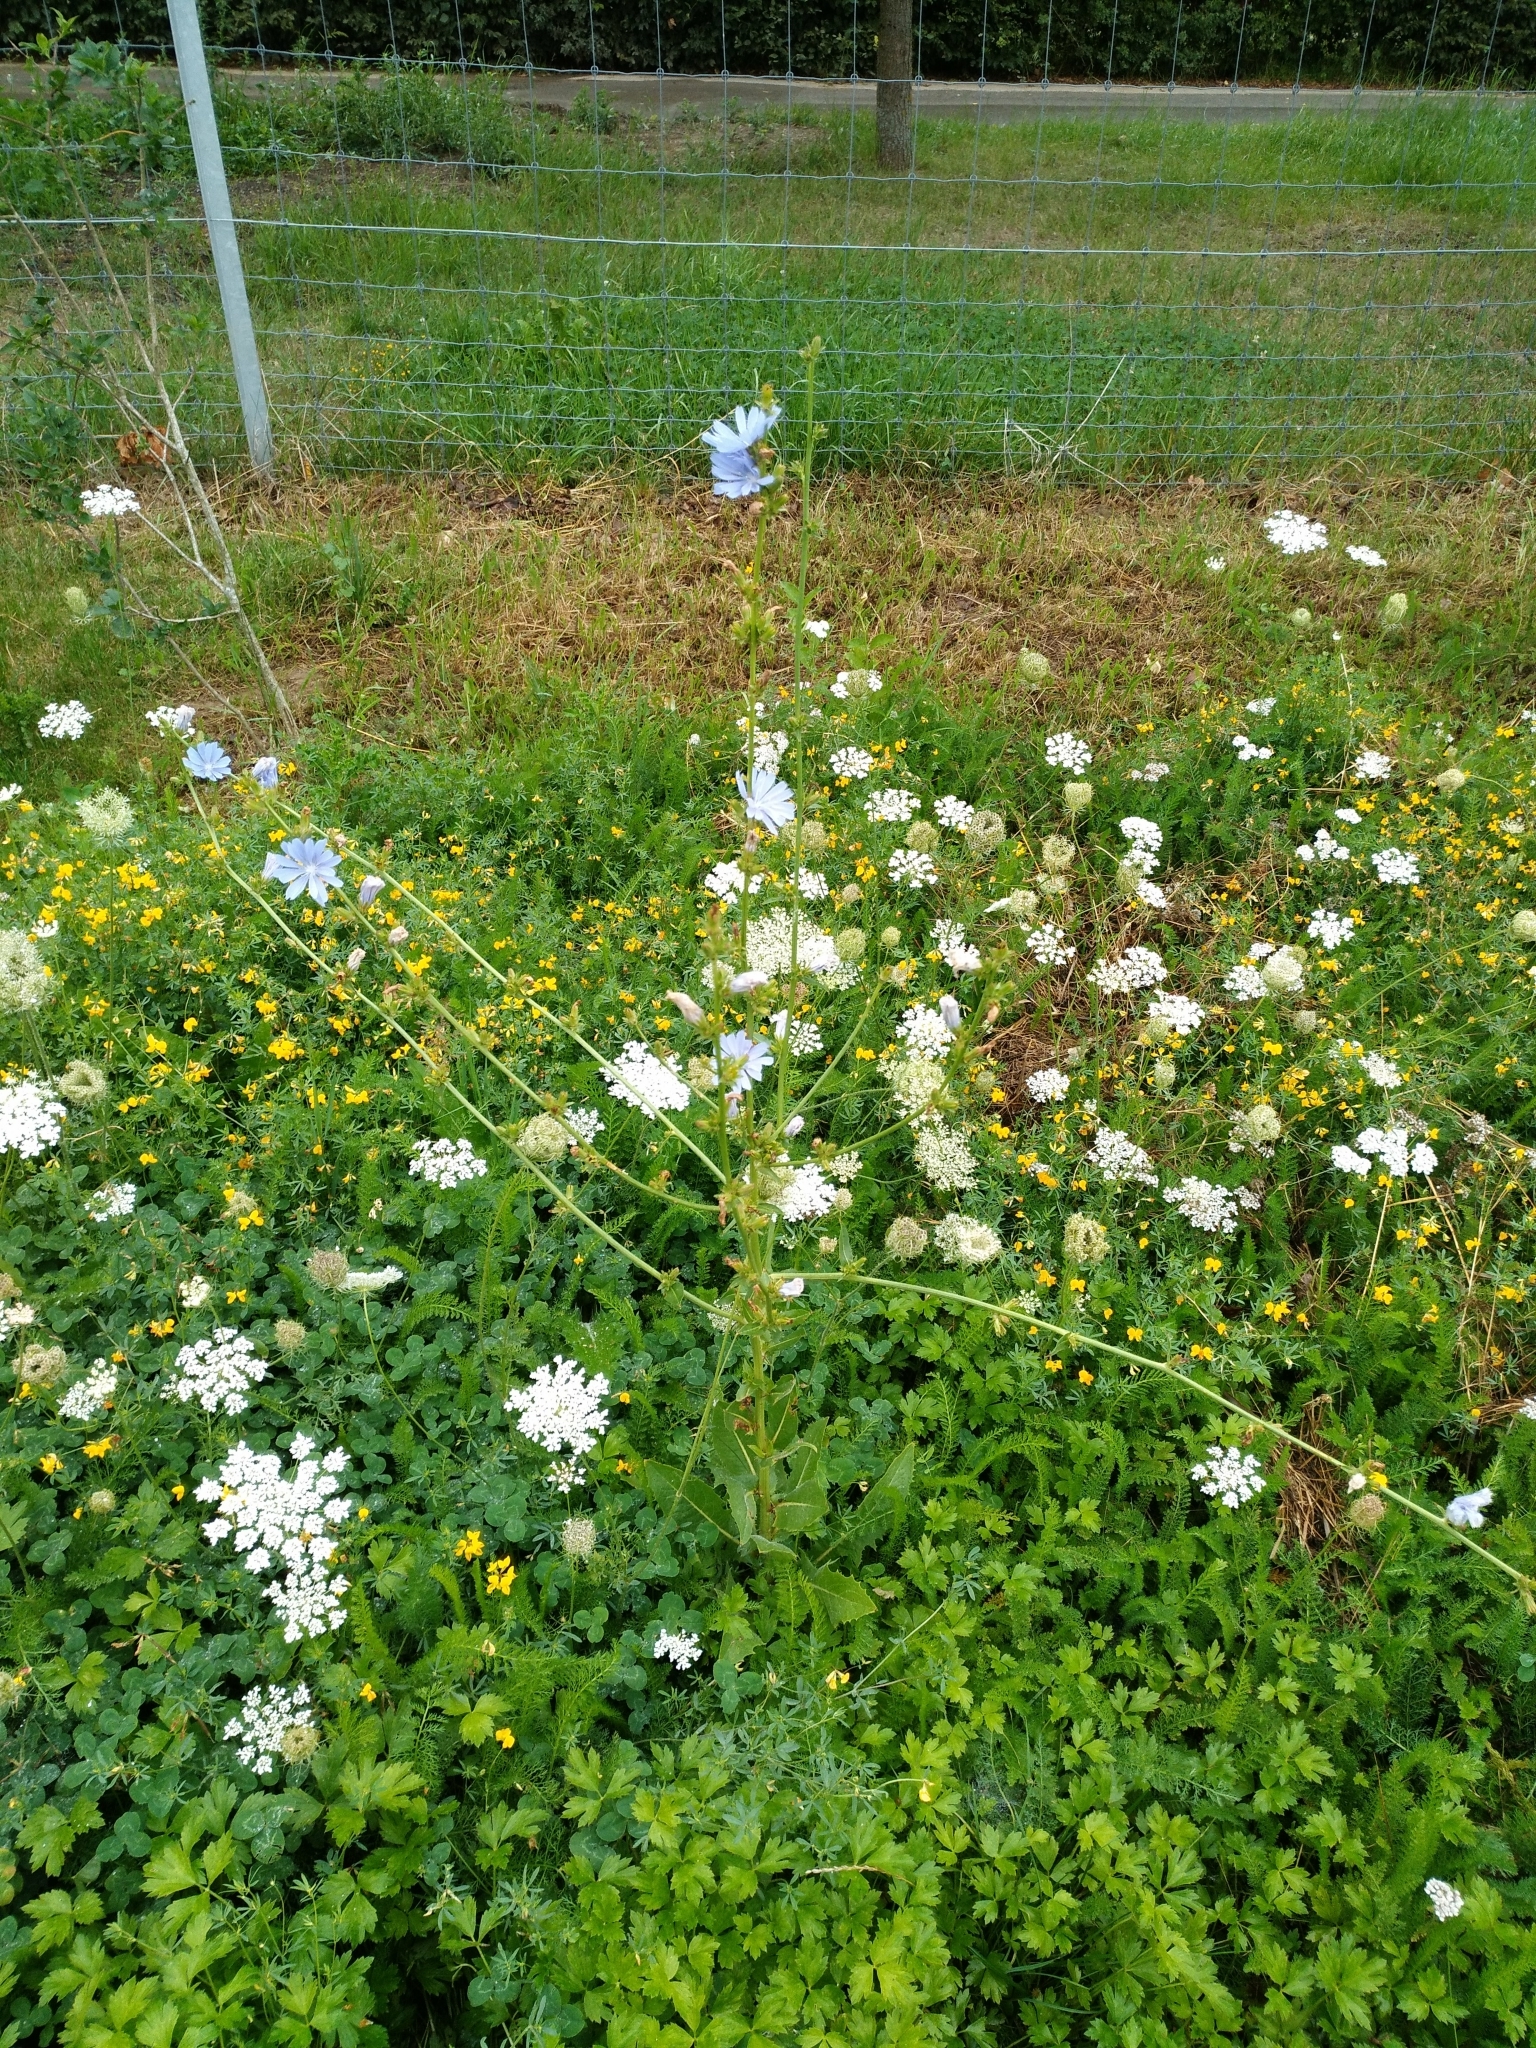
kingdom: Plantae
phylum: Tracheophyta
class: Magnoliopsida
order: Asterales
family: Asteraceae
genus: Cichorium
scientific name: Cichorium intybus
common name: Chicory
